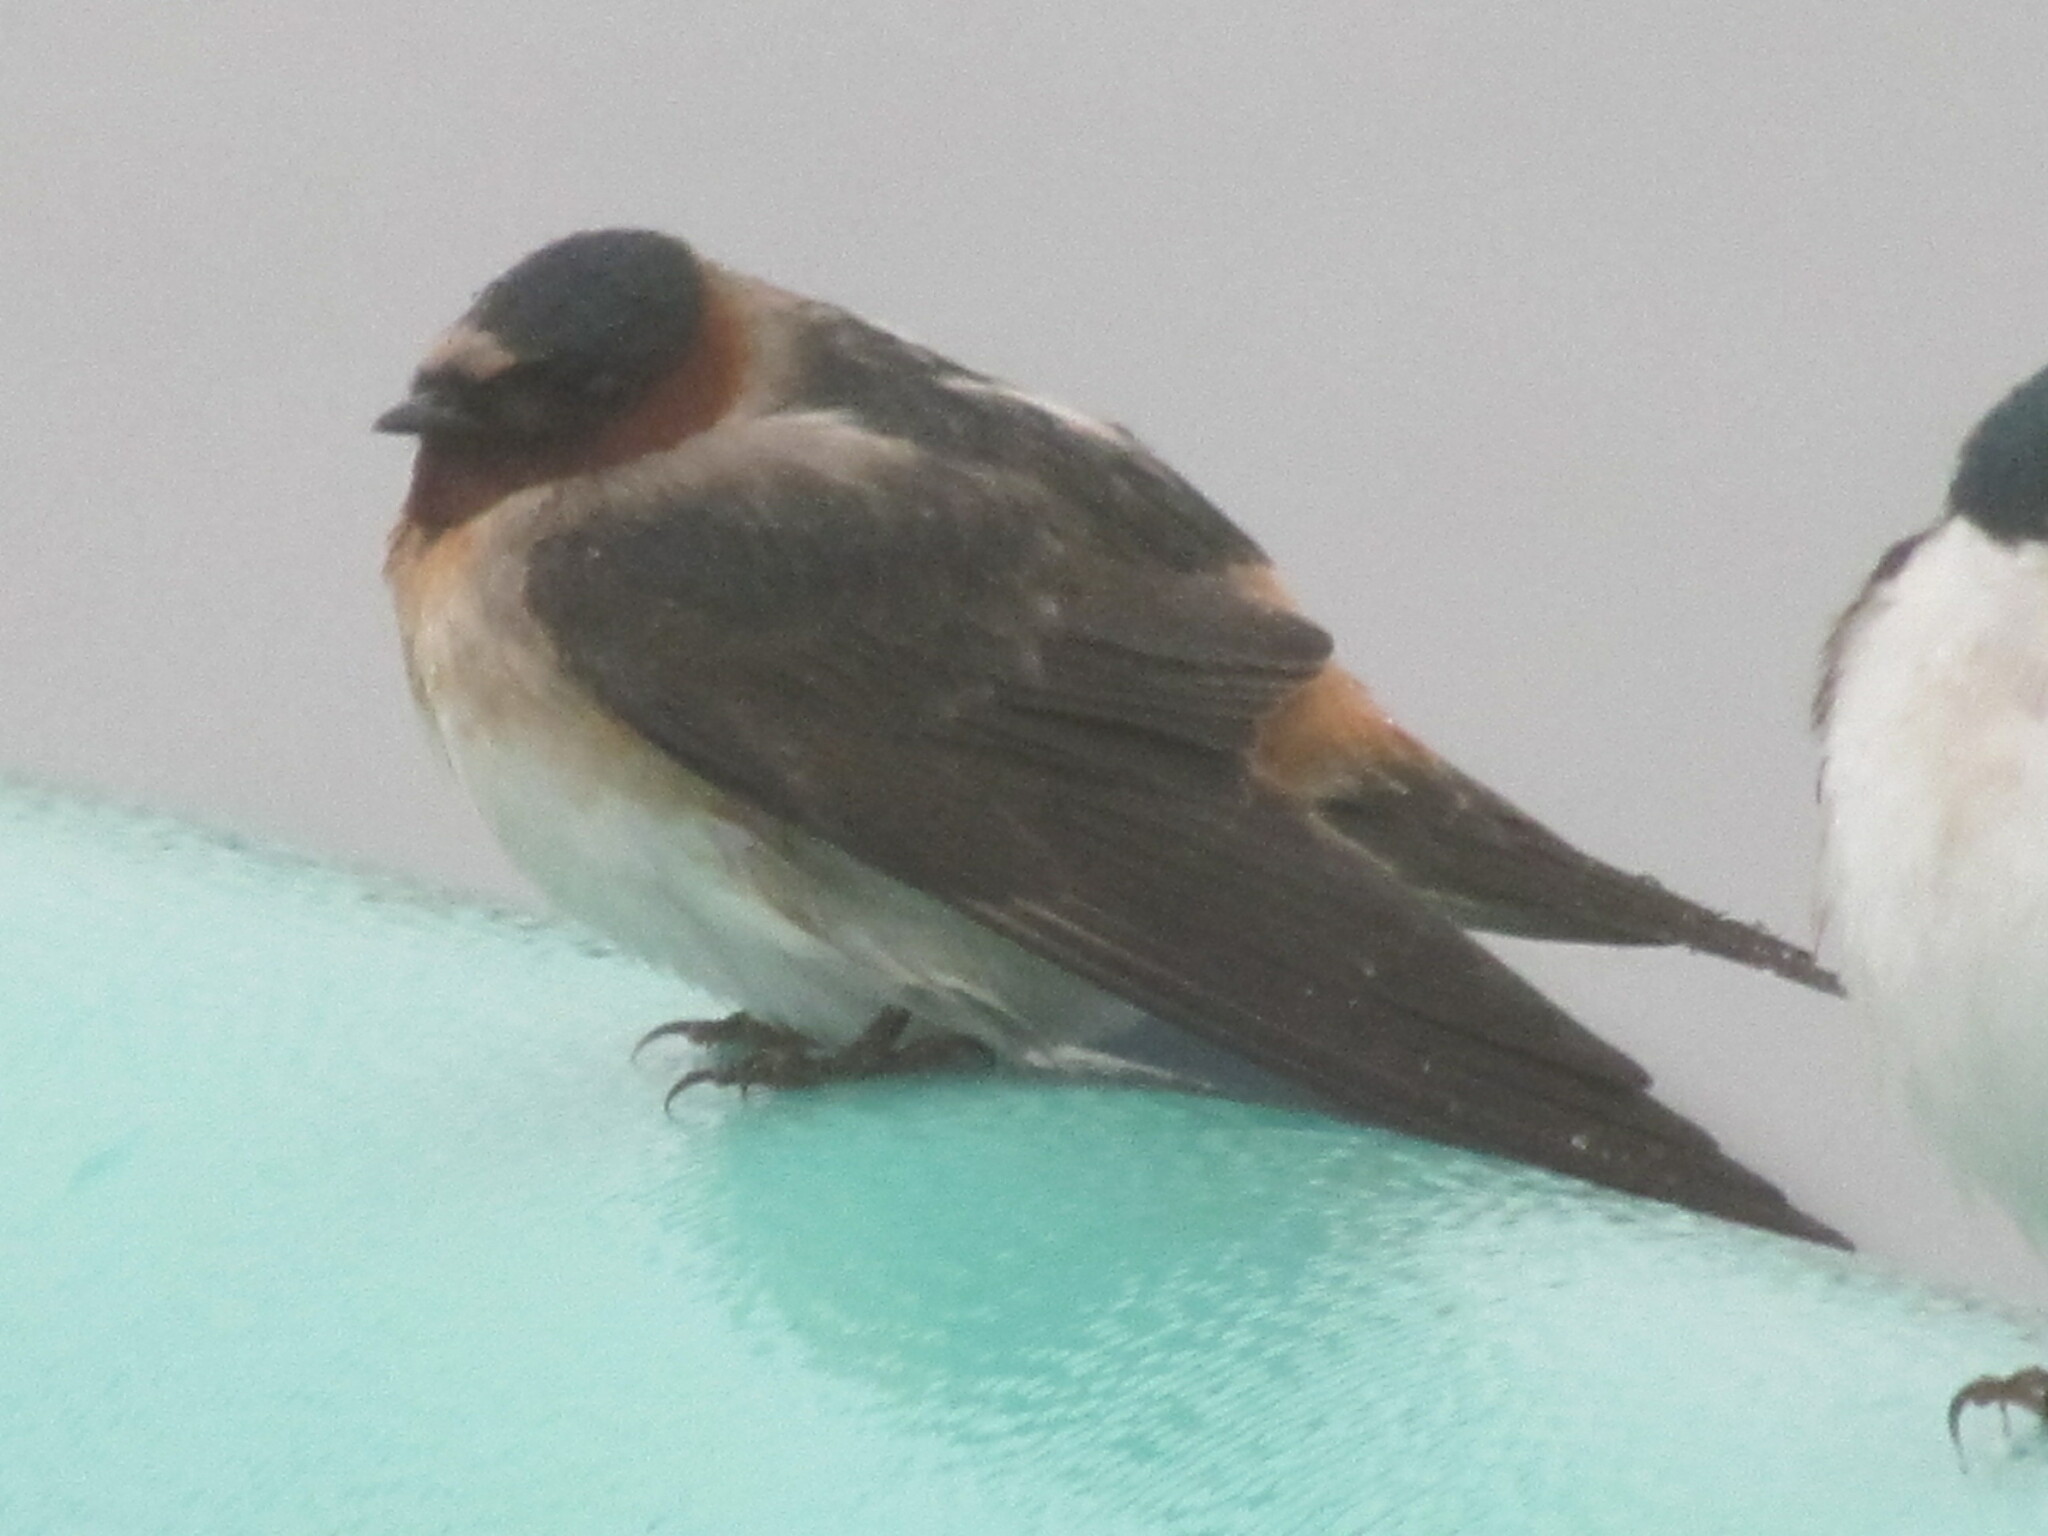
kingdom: Animalia
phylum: Chordata
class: Aves
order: Passeriformes
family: Hirundinidae
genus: Petrochelidon
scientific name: Petrochelidon pyrrhonota
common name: American cliff swallow
